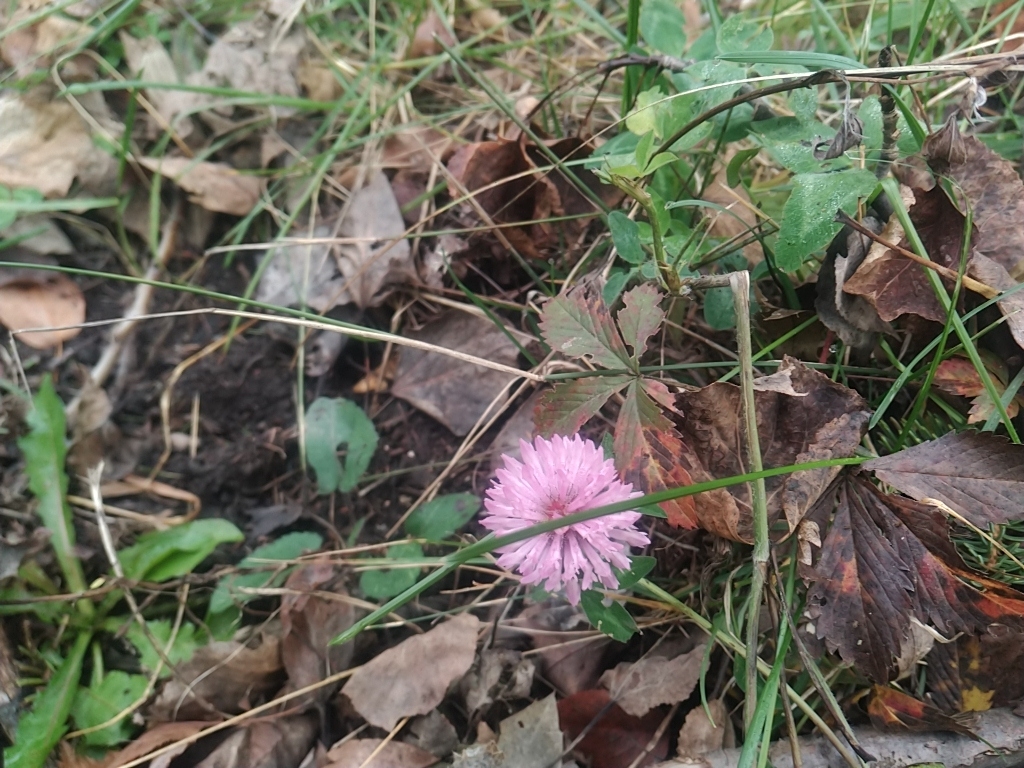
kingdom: Plantae
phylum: Tracheophyta
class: Magnoliopsida
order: Fabales
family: Fabaceae
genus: Trifolium
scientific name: Trifolium pratense
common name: Red clover
